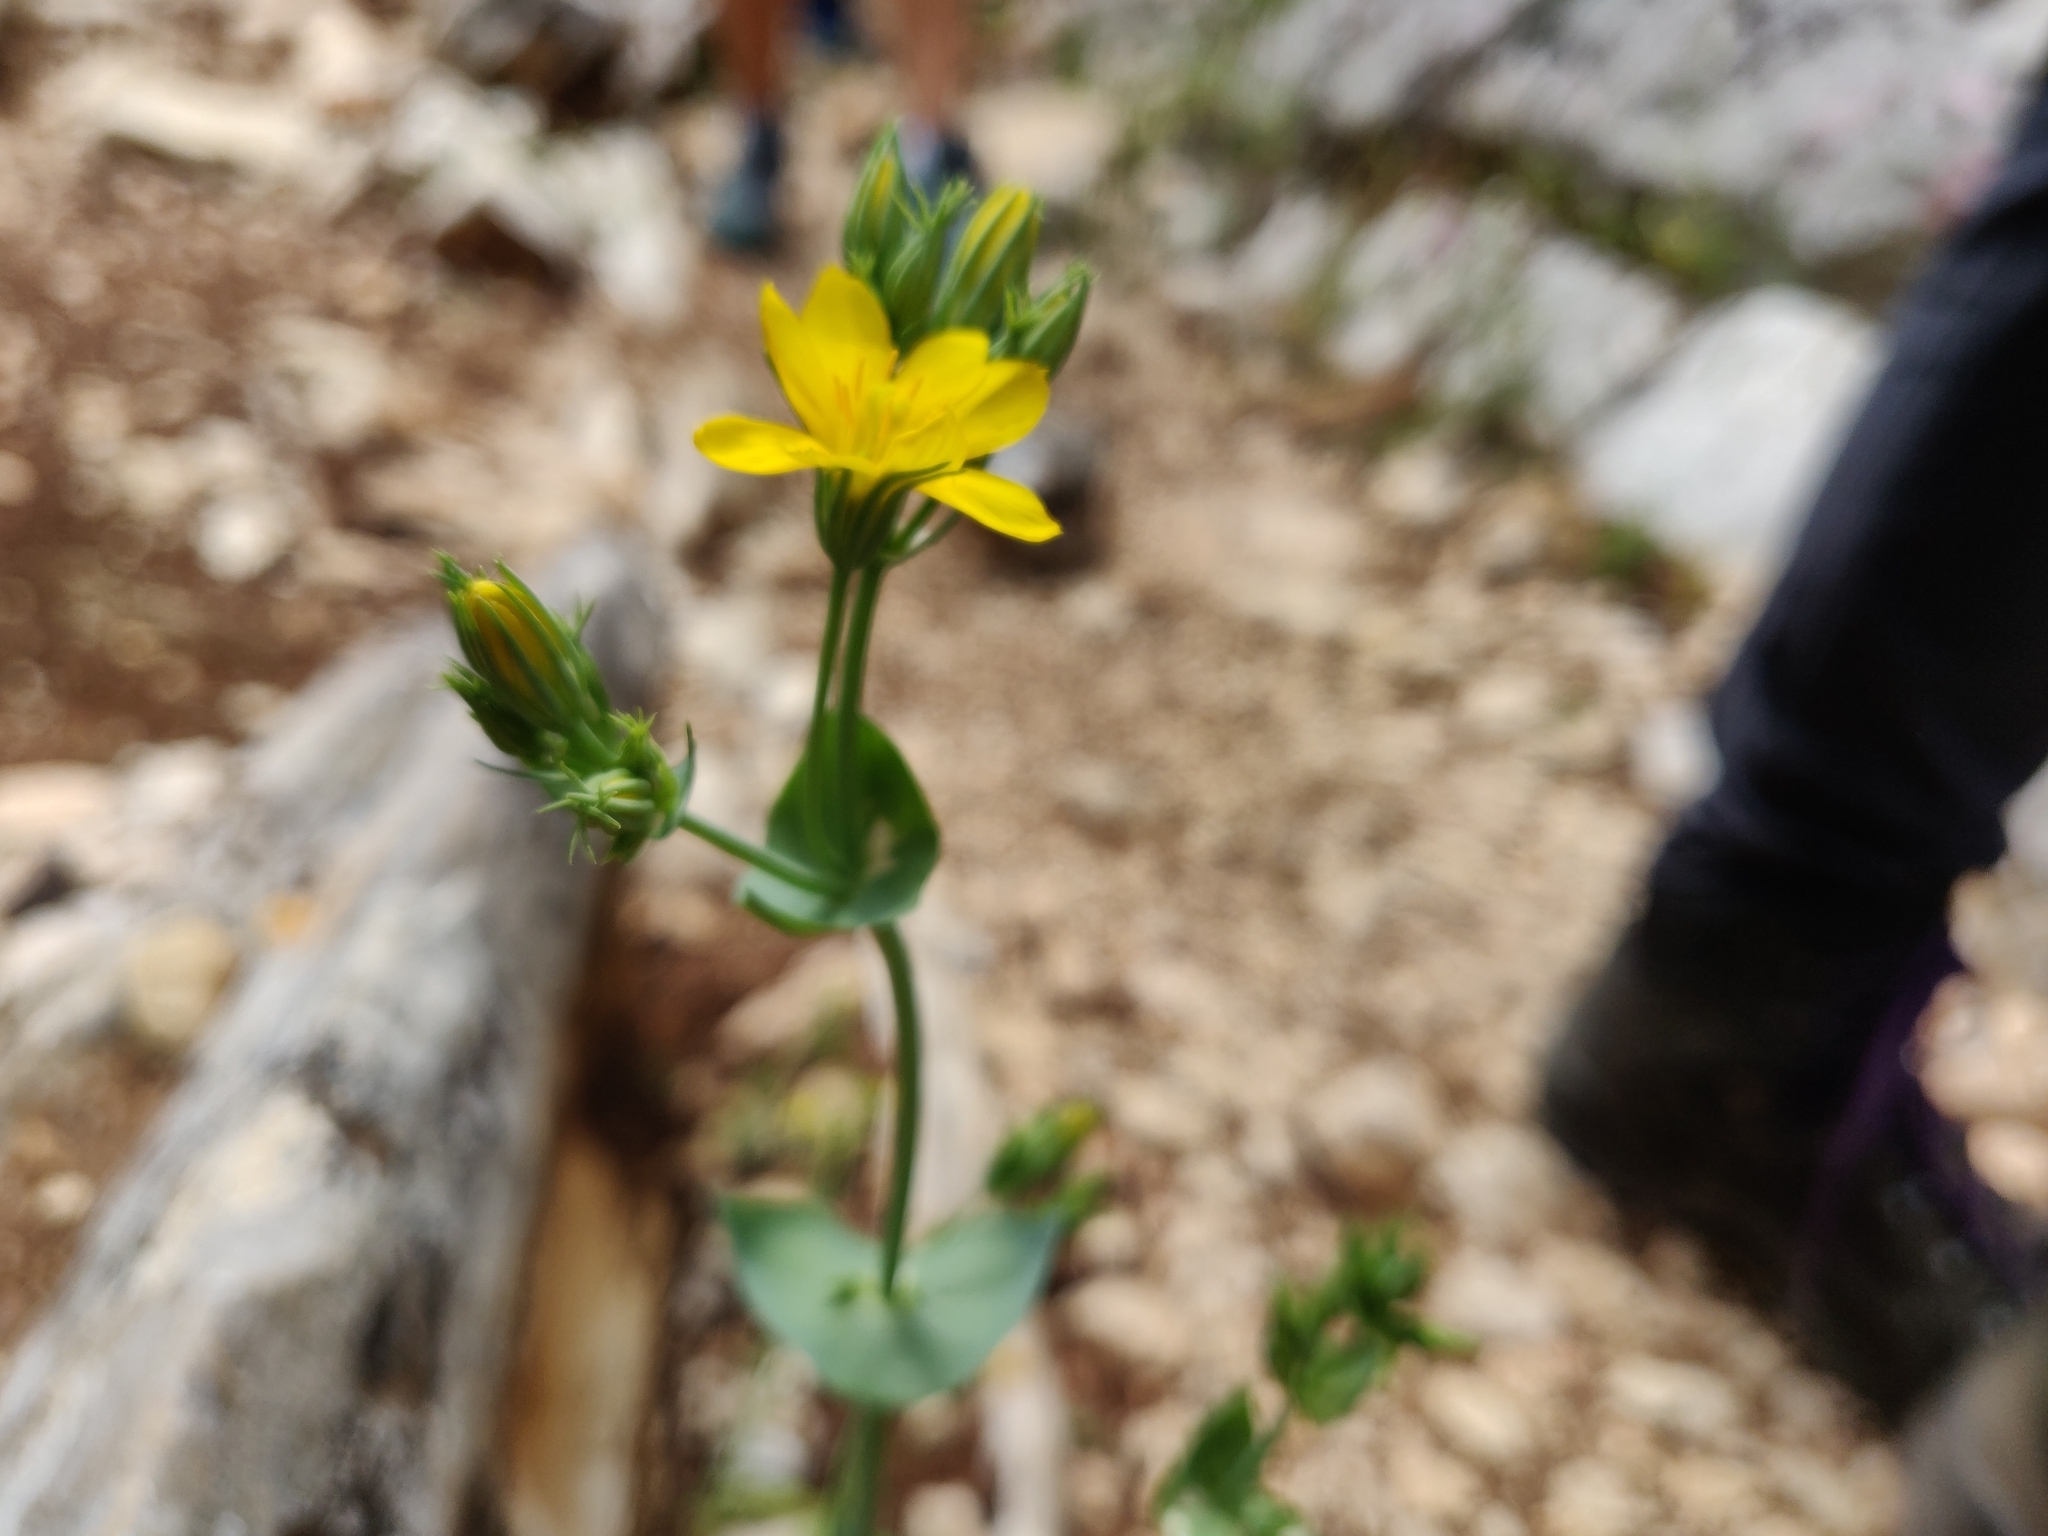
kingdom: Plantae
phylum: Tracheophyta
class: Magnoliopsida
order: Gentianales
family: Gentianaceae
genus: Blackstonia
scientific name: Blackstonia perfoliata
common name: Yellow-wort
